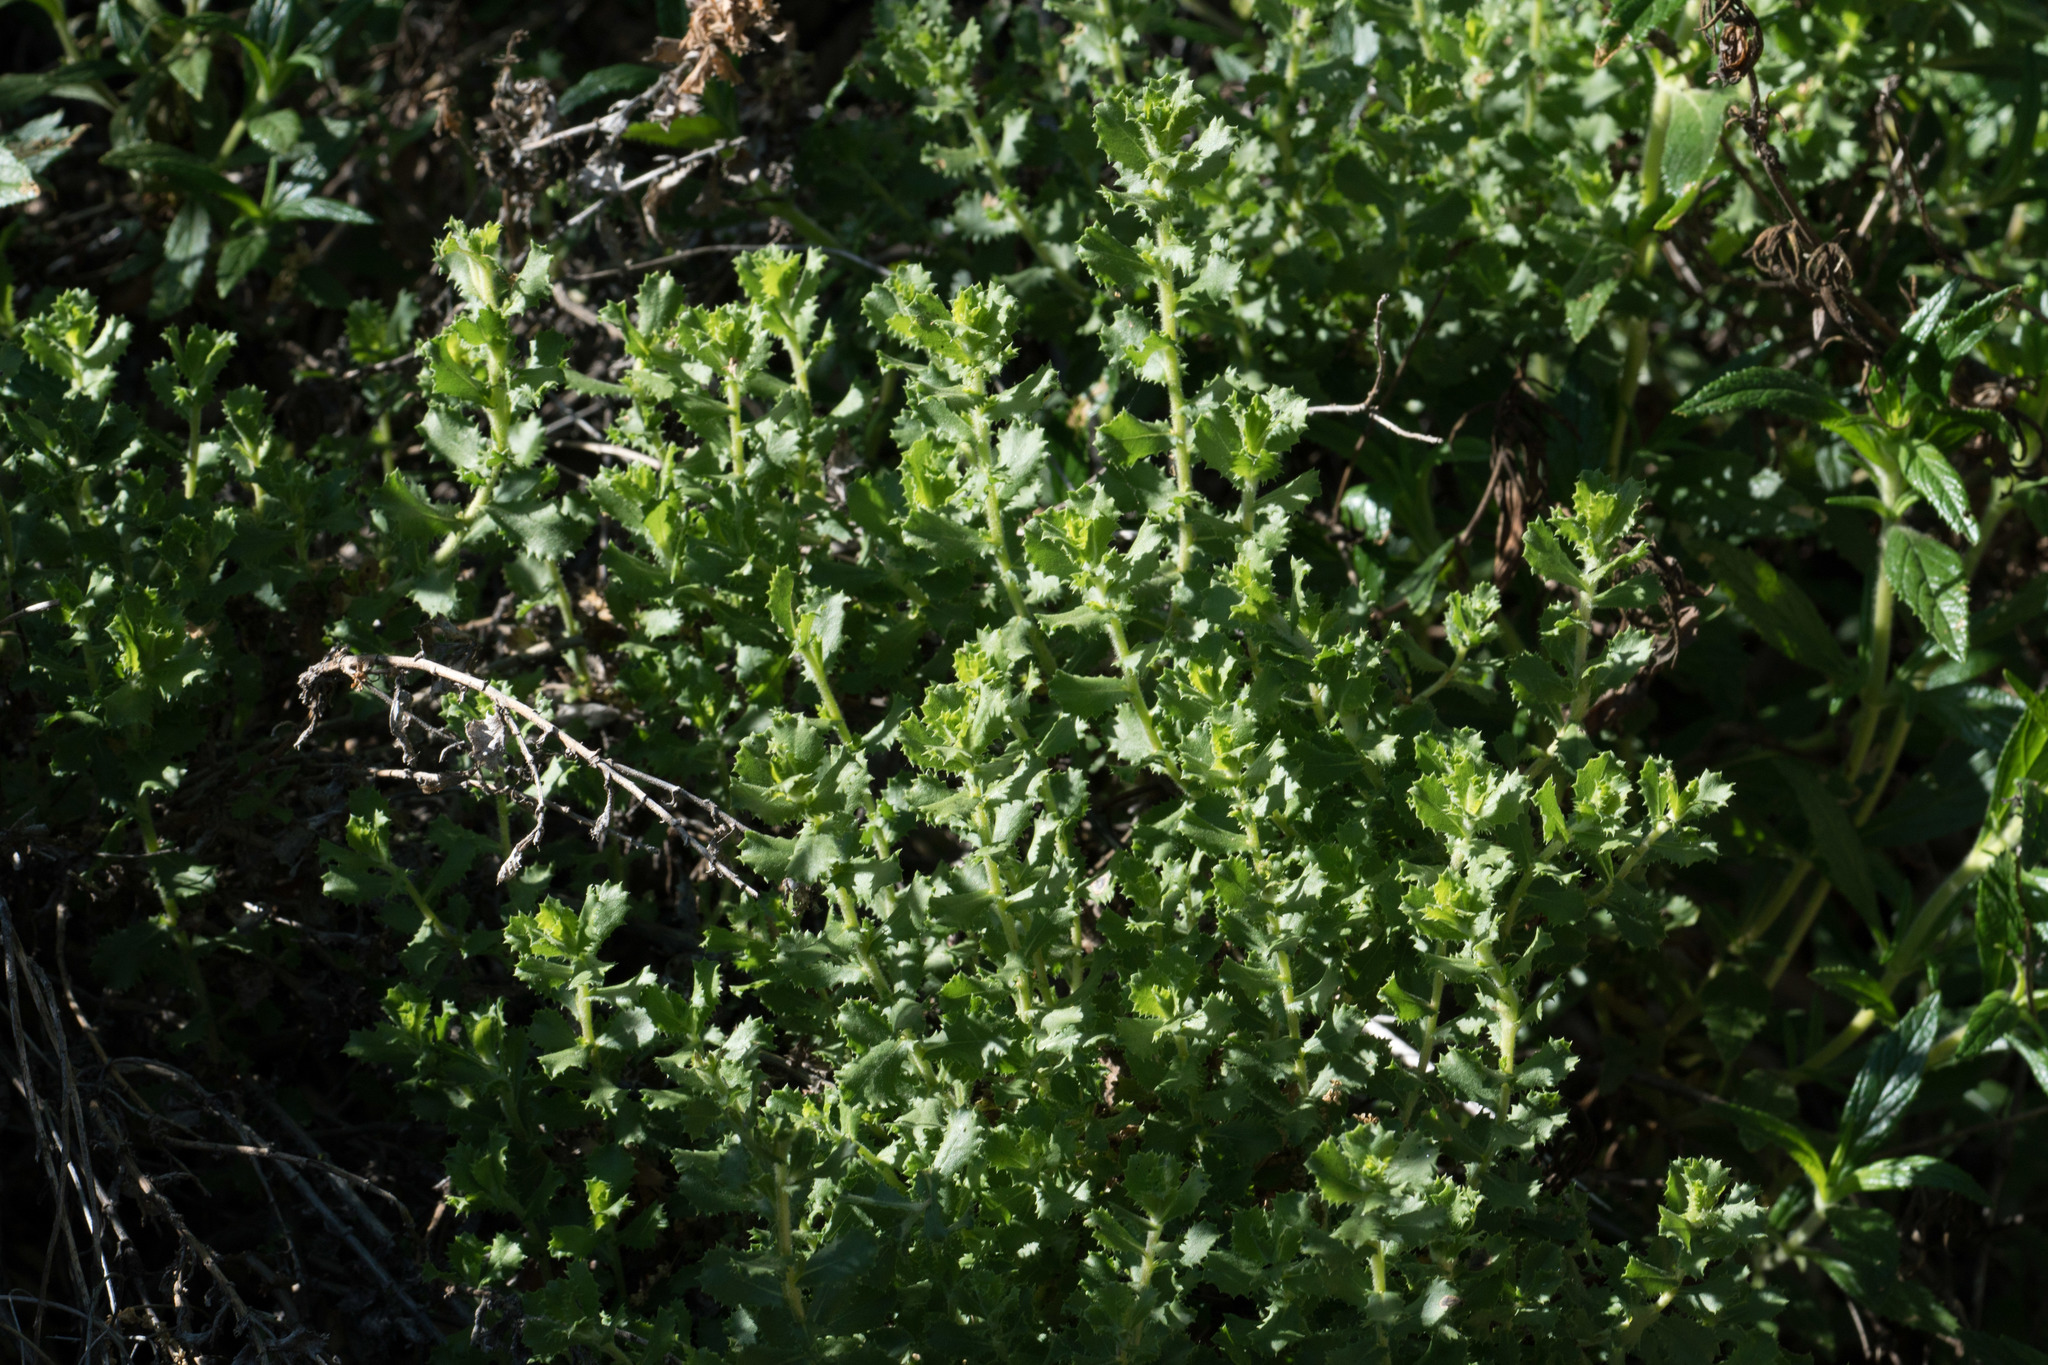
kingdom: Plantae
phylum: Tracheophyta
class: Magnoliopsida
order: Asterales
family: Asteraceae
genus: Hazardia
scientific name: Hazardia squarrosa
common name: Saw-tooth goldenbush
